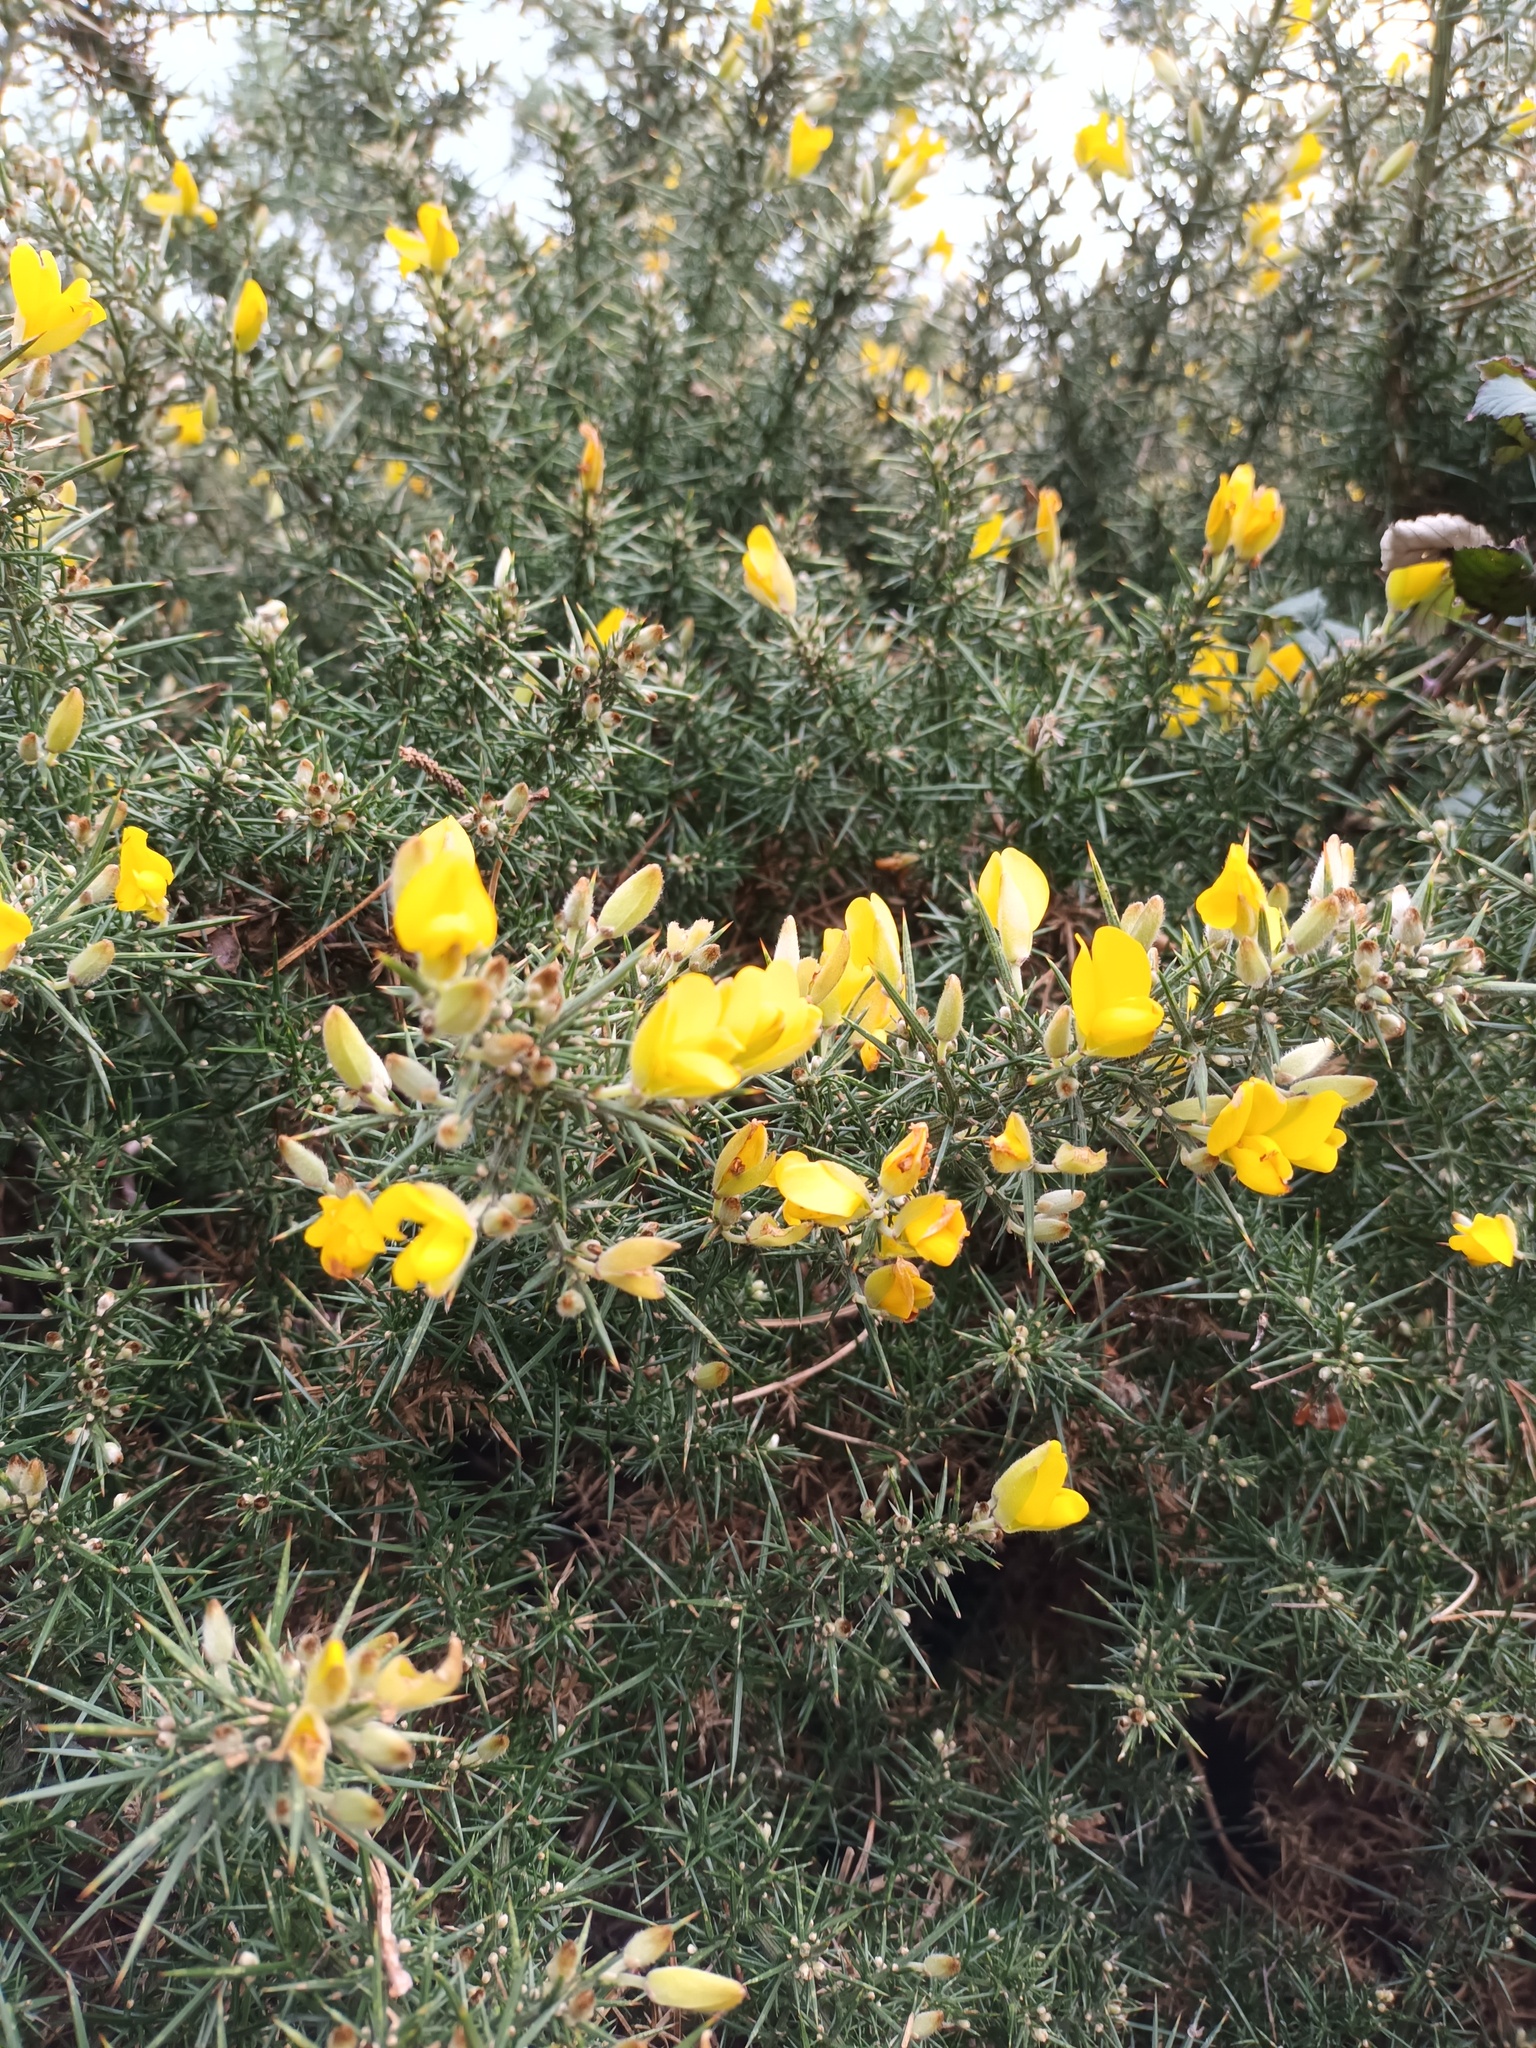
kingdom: Plantae
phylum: Tracheophyta
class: Magnoliopsida
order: Fabales
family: Fabaceae
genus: Ulex
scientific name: Ulex europaeus
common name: Common gorse
